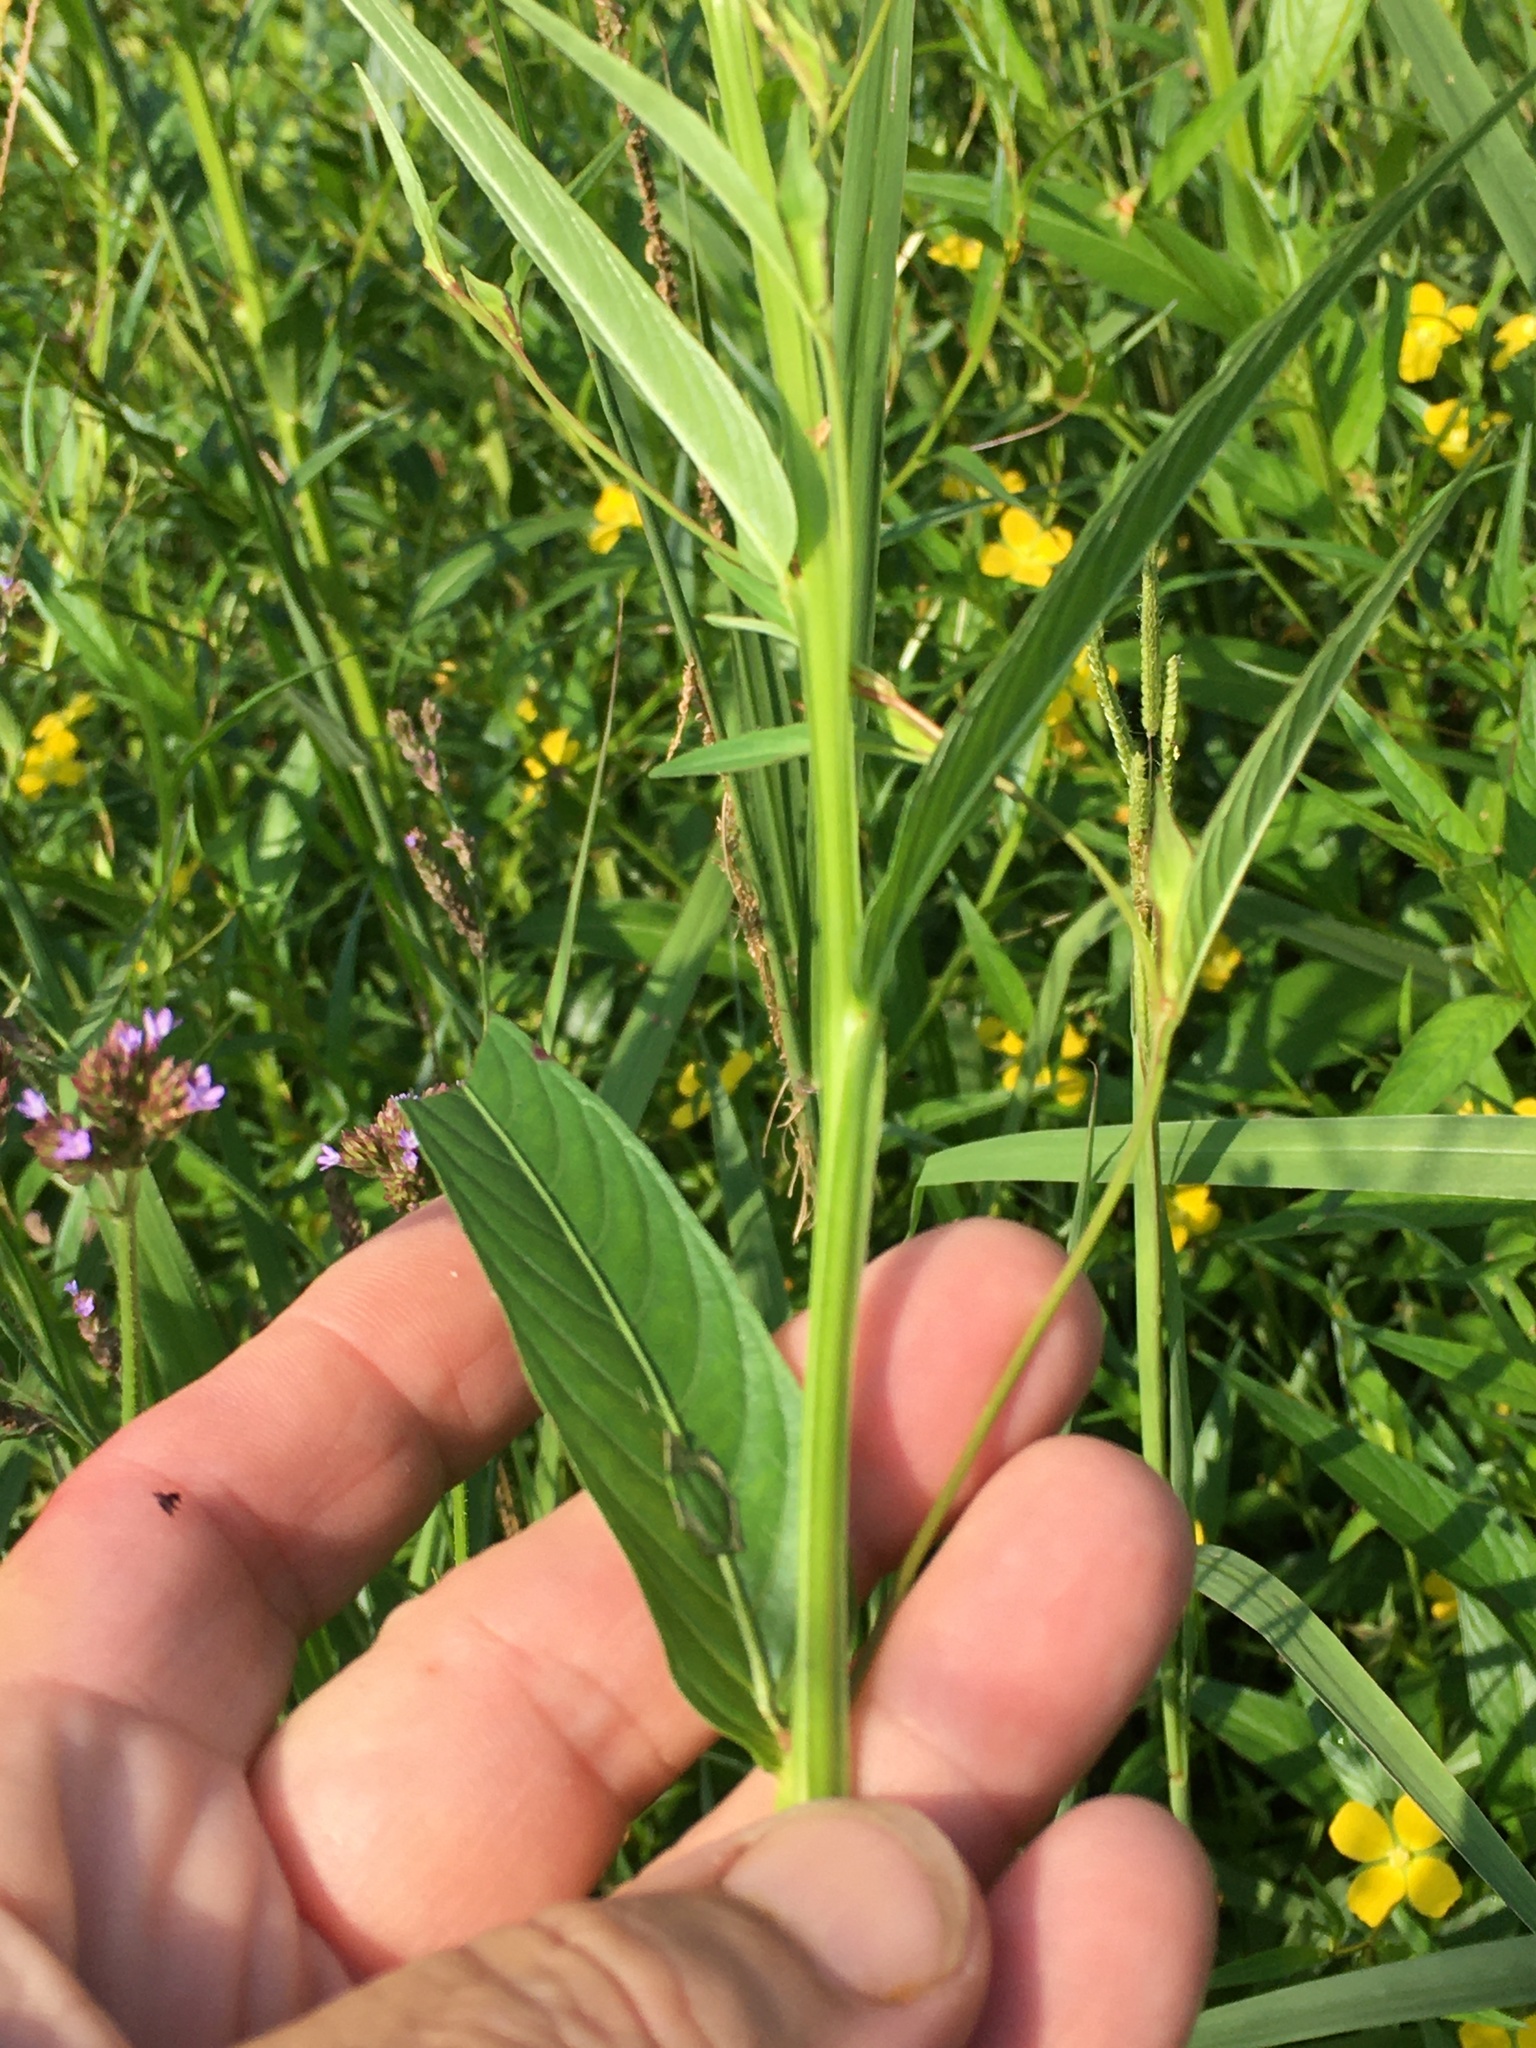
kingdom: Plantae
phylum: Tracheophyta
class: Magnoliopsida
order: Myrtales
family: Onagraceae
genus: Ludwigia
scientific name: Ludwigia decurrens
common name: Winged water-primrose
